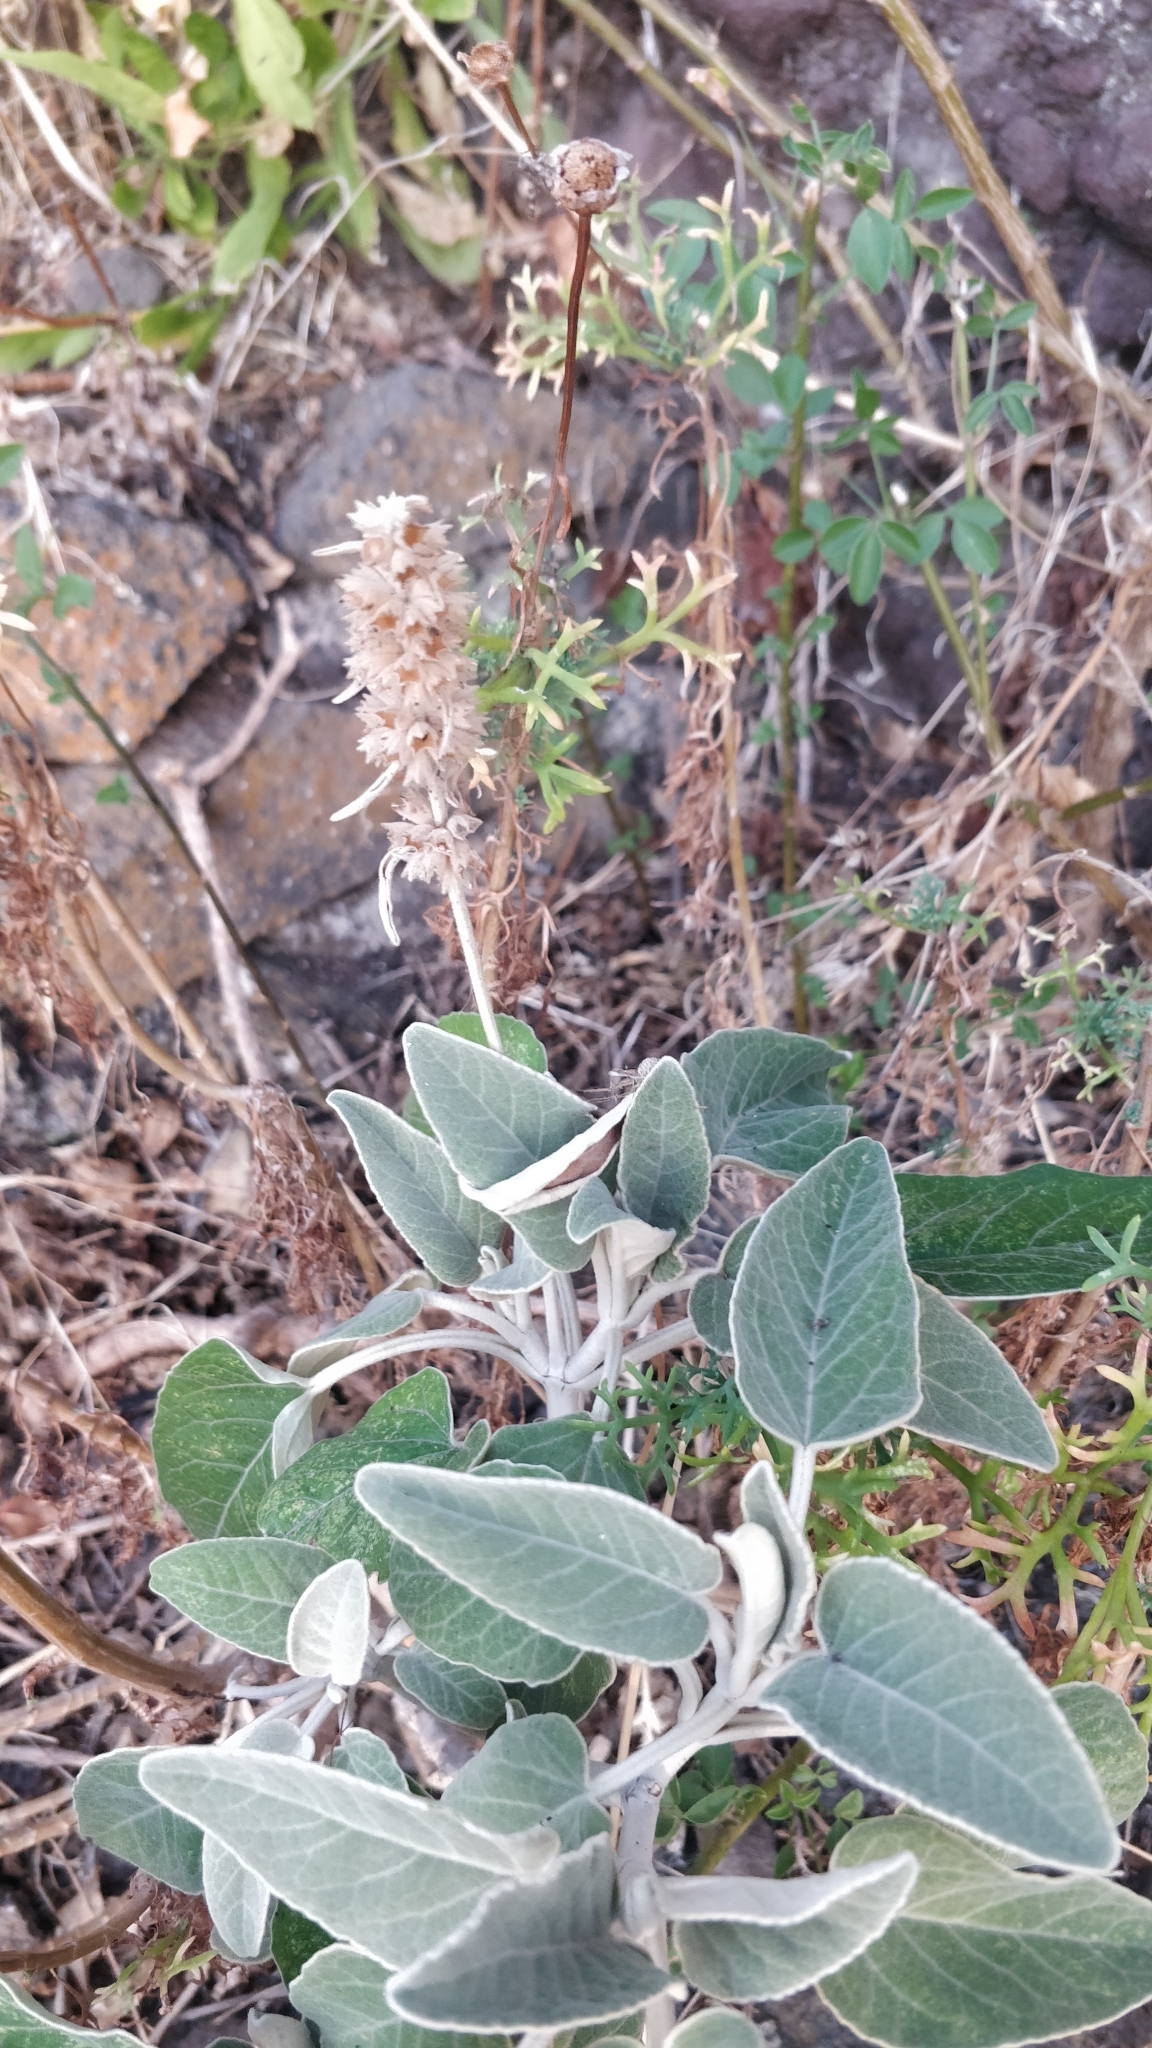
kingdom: Plantae
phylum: Tracheophyta
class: Magnoliopsida
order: Lamiales
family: Lamiaceae
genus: Sideritis
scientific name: Sideritis kuegleriana
